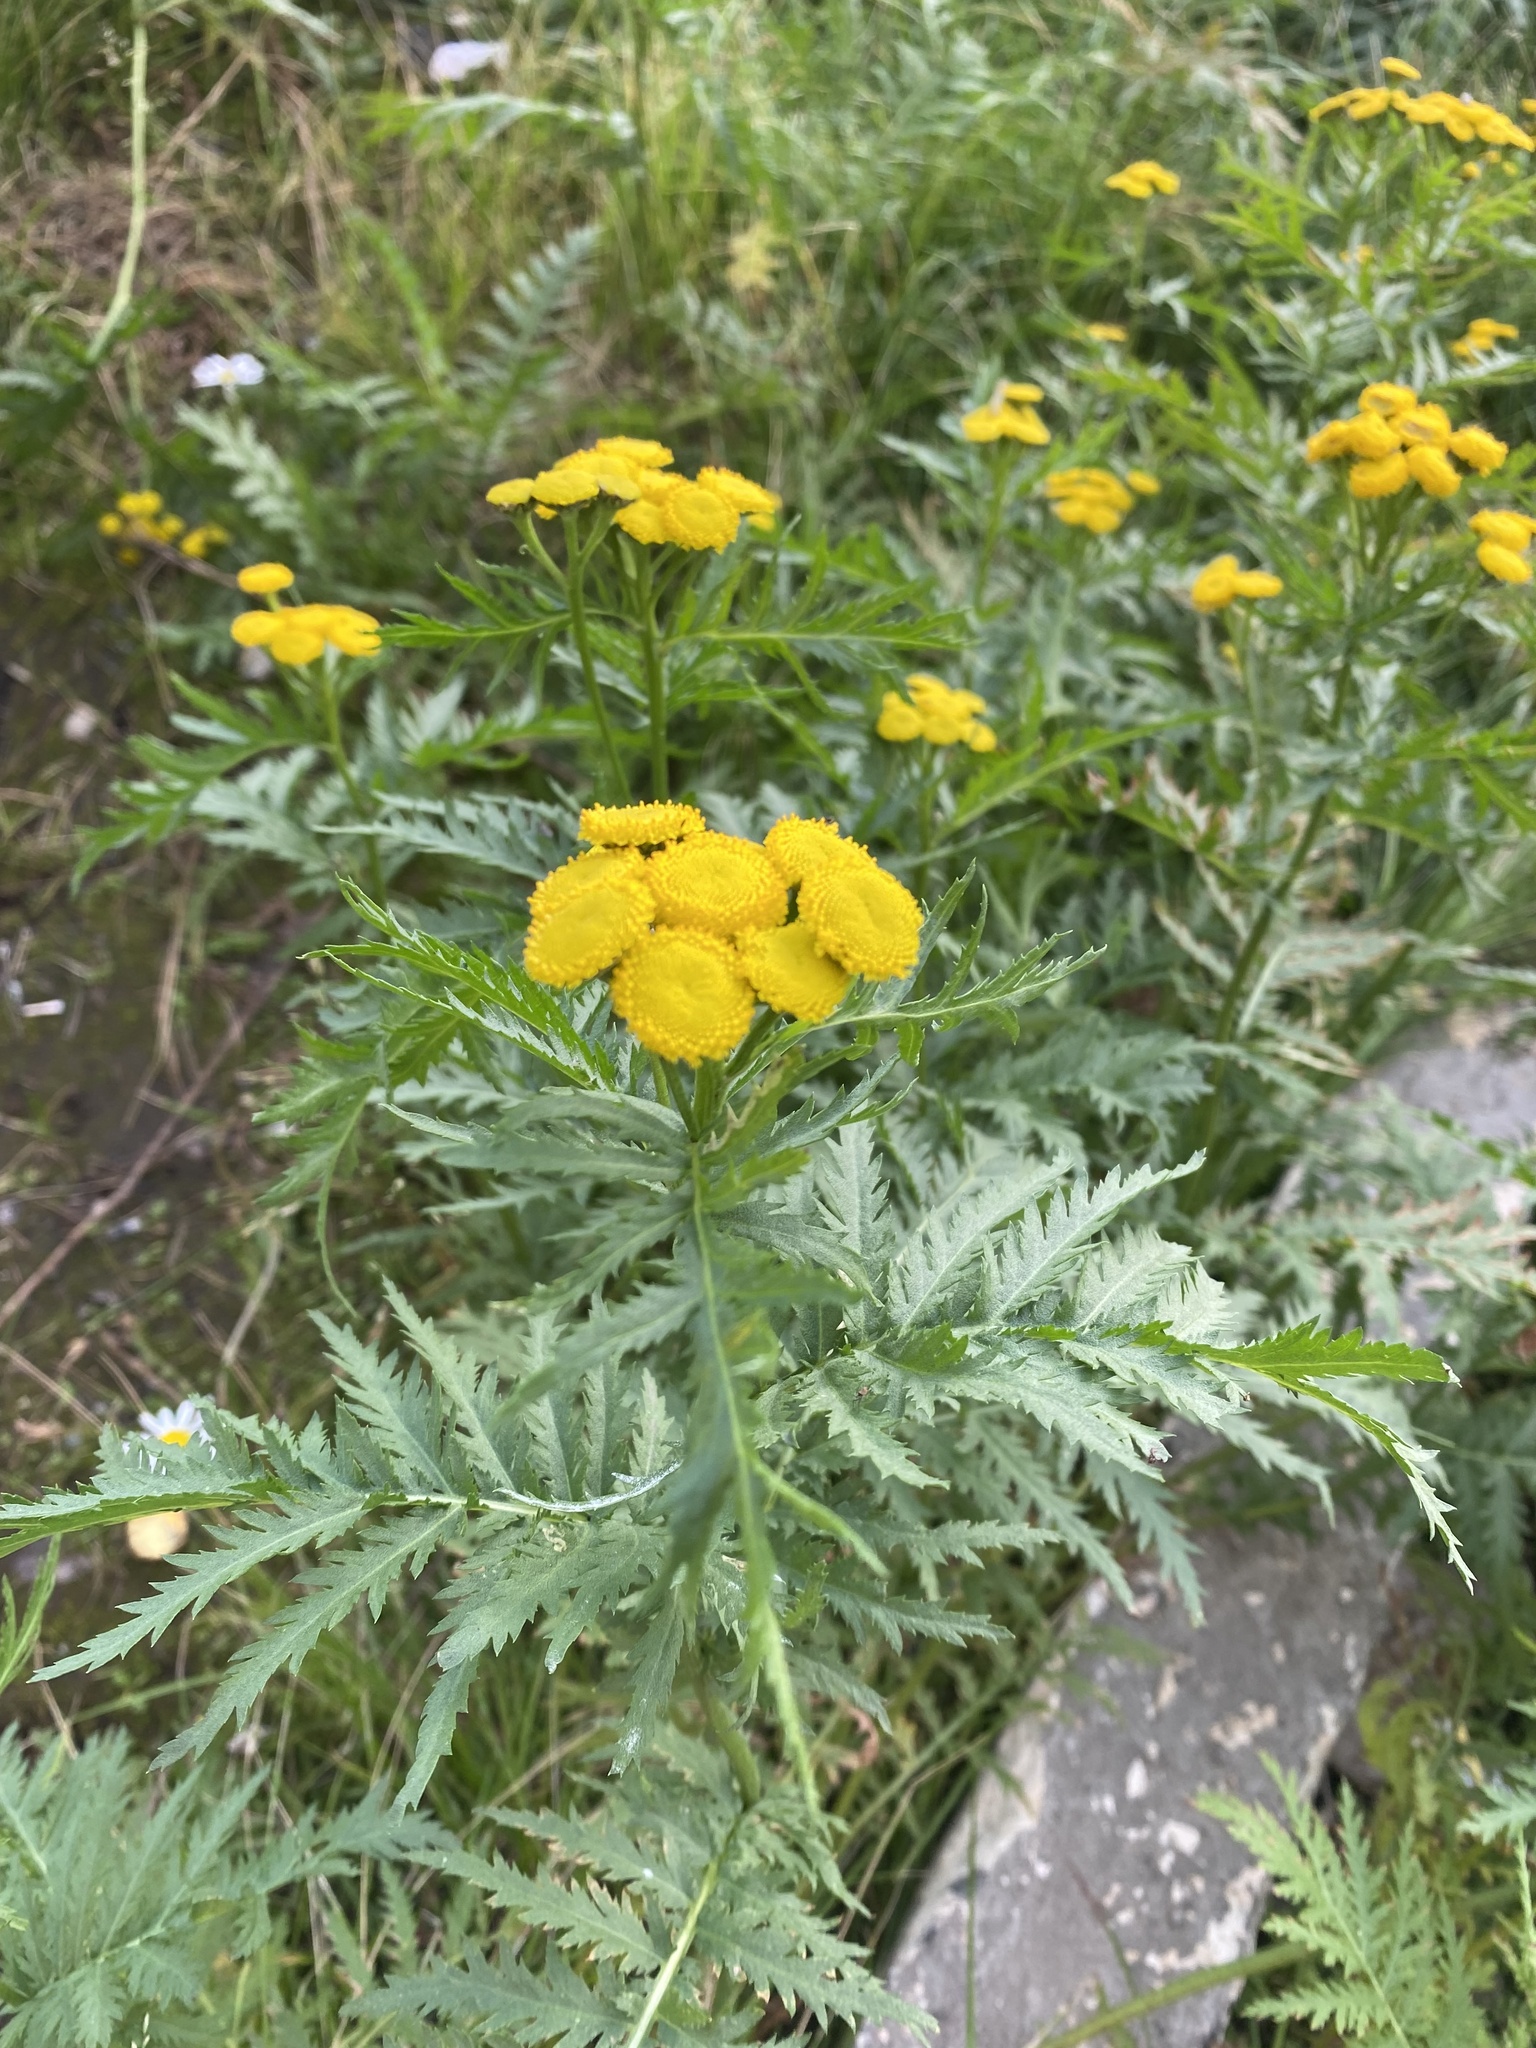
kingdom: Plantae
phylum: Tracheophyta
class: Magnoliopsida
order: Asterales
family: Asteraceae
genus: Tanacetum
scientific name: Tanacetum vulgare
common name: Common tansy
